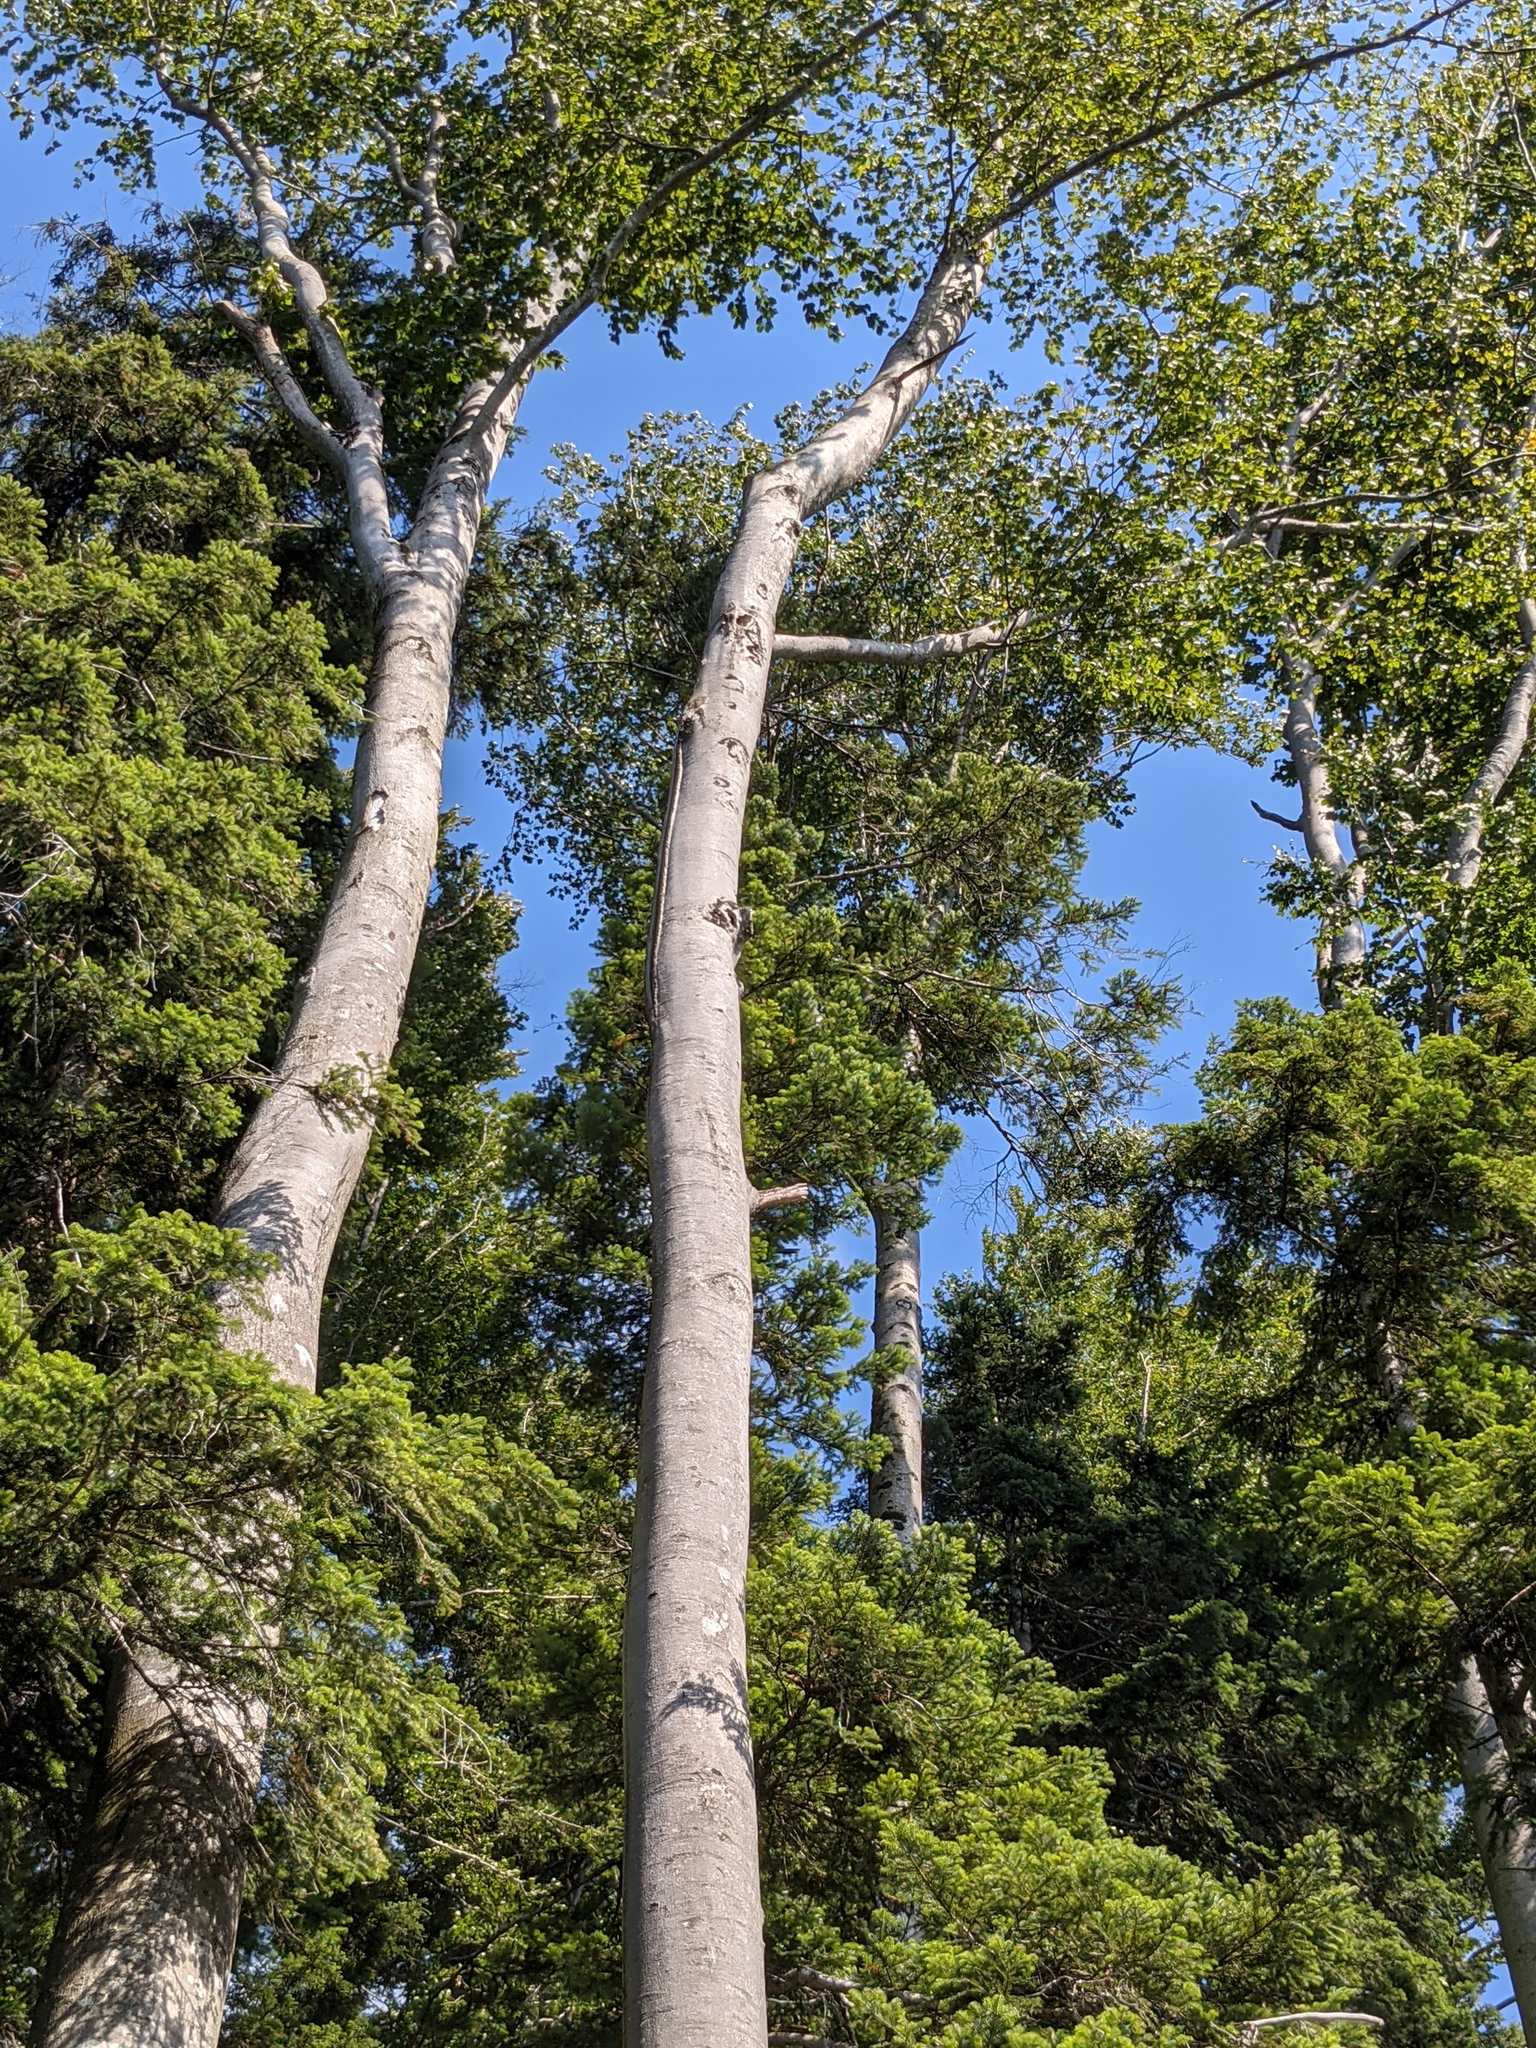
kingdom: Plantae
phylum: Tracheophyta
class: Magnoliopsida
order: Fagales
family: Fagaceae
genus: Fagus
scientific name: Fagus sylvatica
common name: Beech
